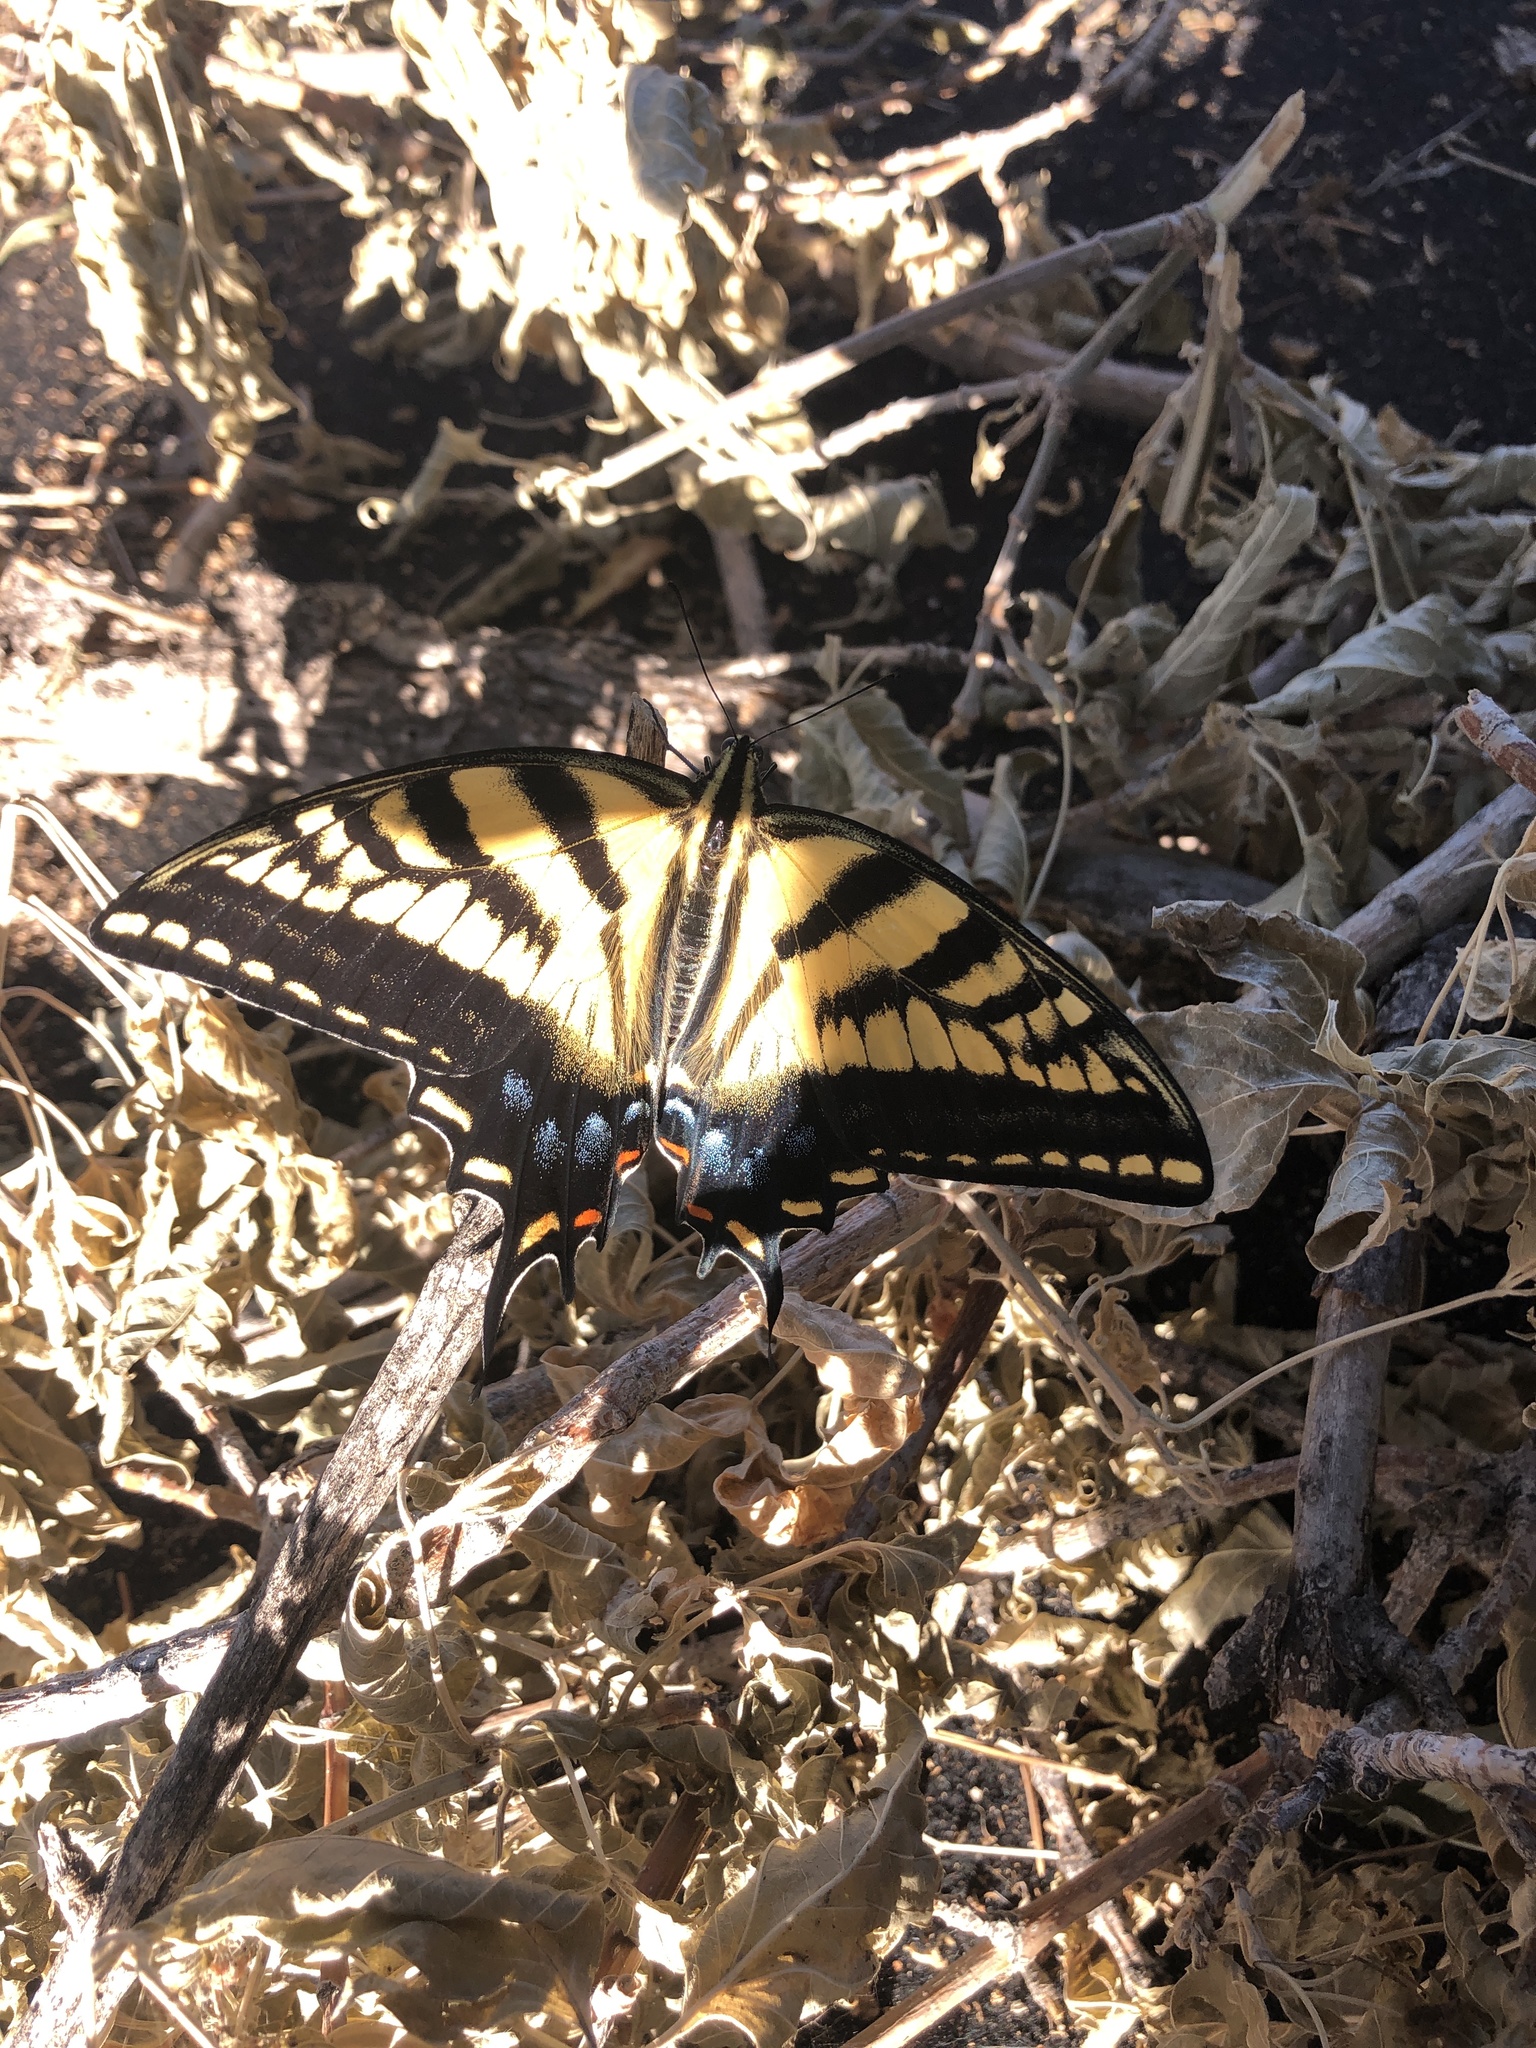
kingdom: Animalia
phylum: Arthropoda
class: Insecta
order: Lepidoptera
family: Papilionidae
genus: Papilio
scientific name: Papilio multicaudata
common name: Two-tailed tiger swallowtail
